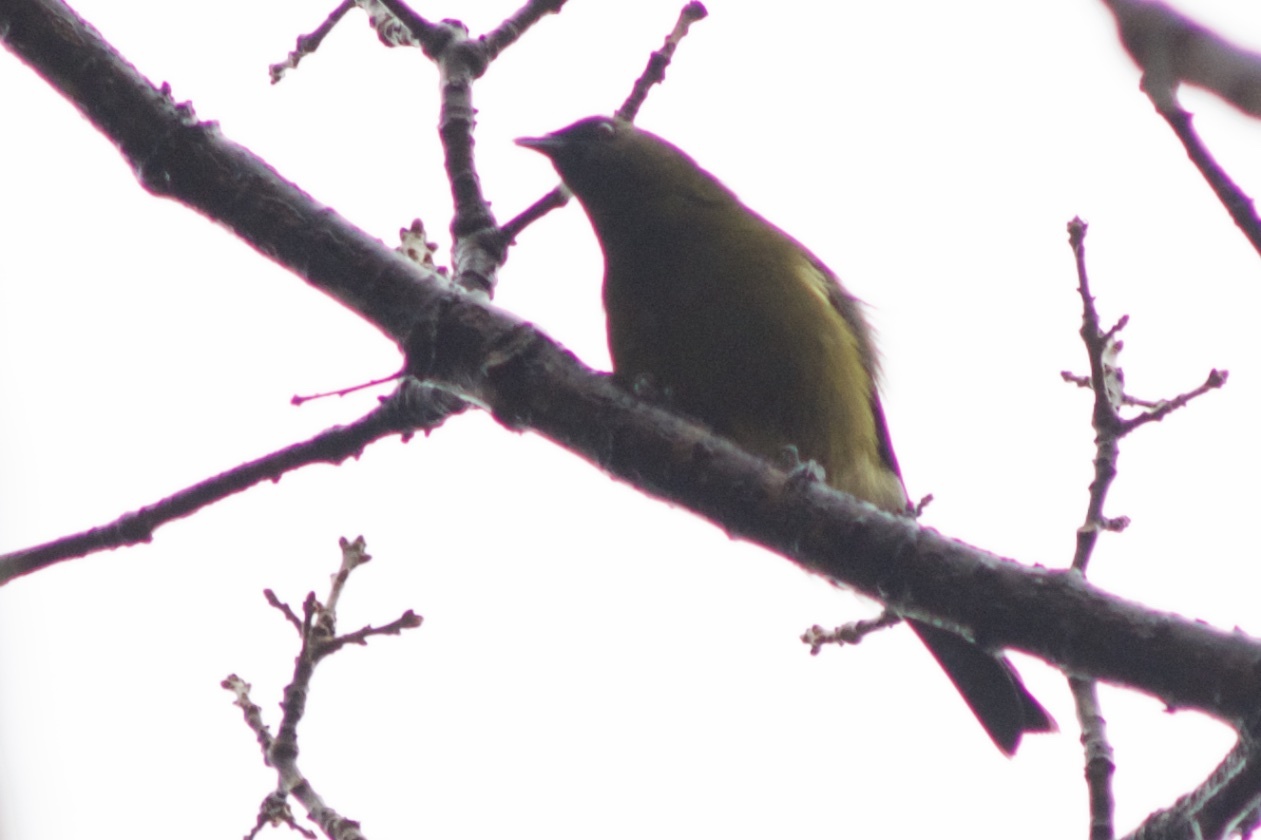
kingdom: Animalia
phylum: Chordata
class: Aves
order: Passeriformes
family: Meliphagidae
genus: Anthornis
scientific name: Anthornis melanura
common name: New zealand bellbird
